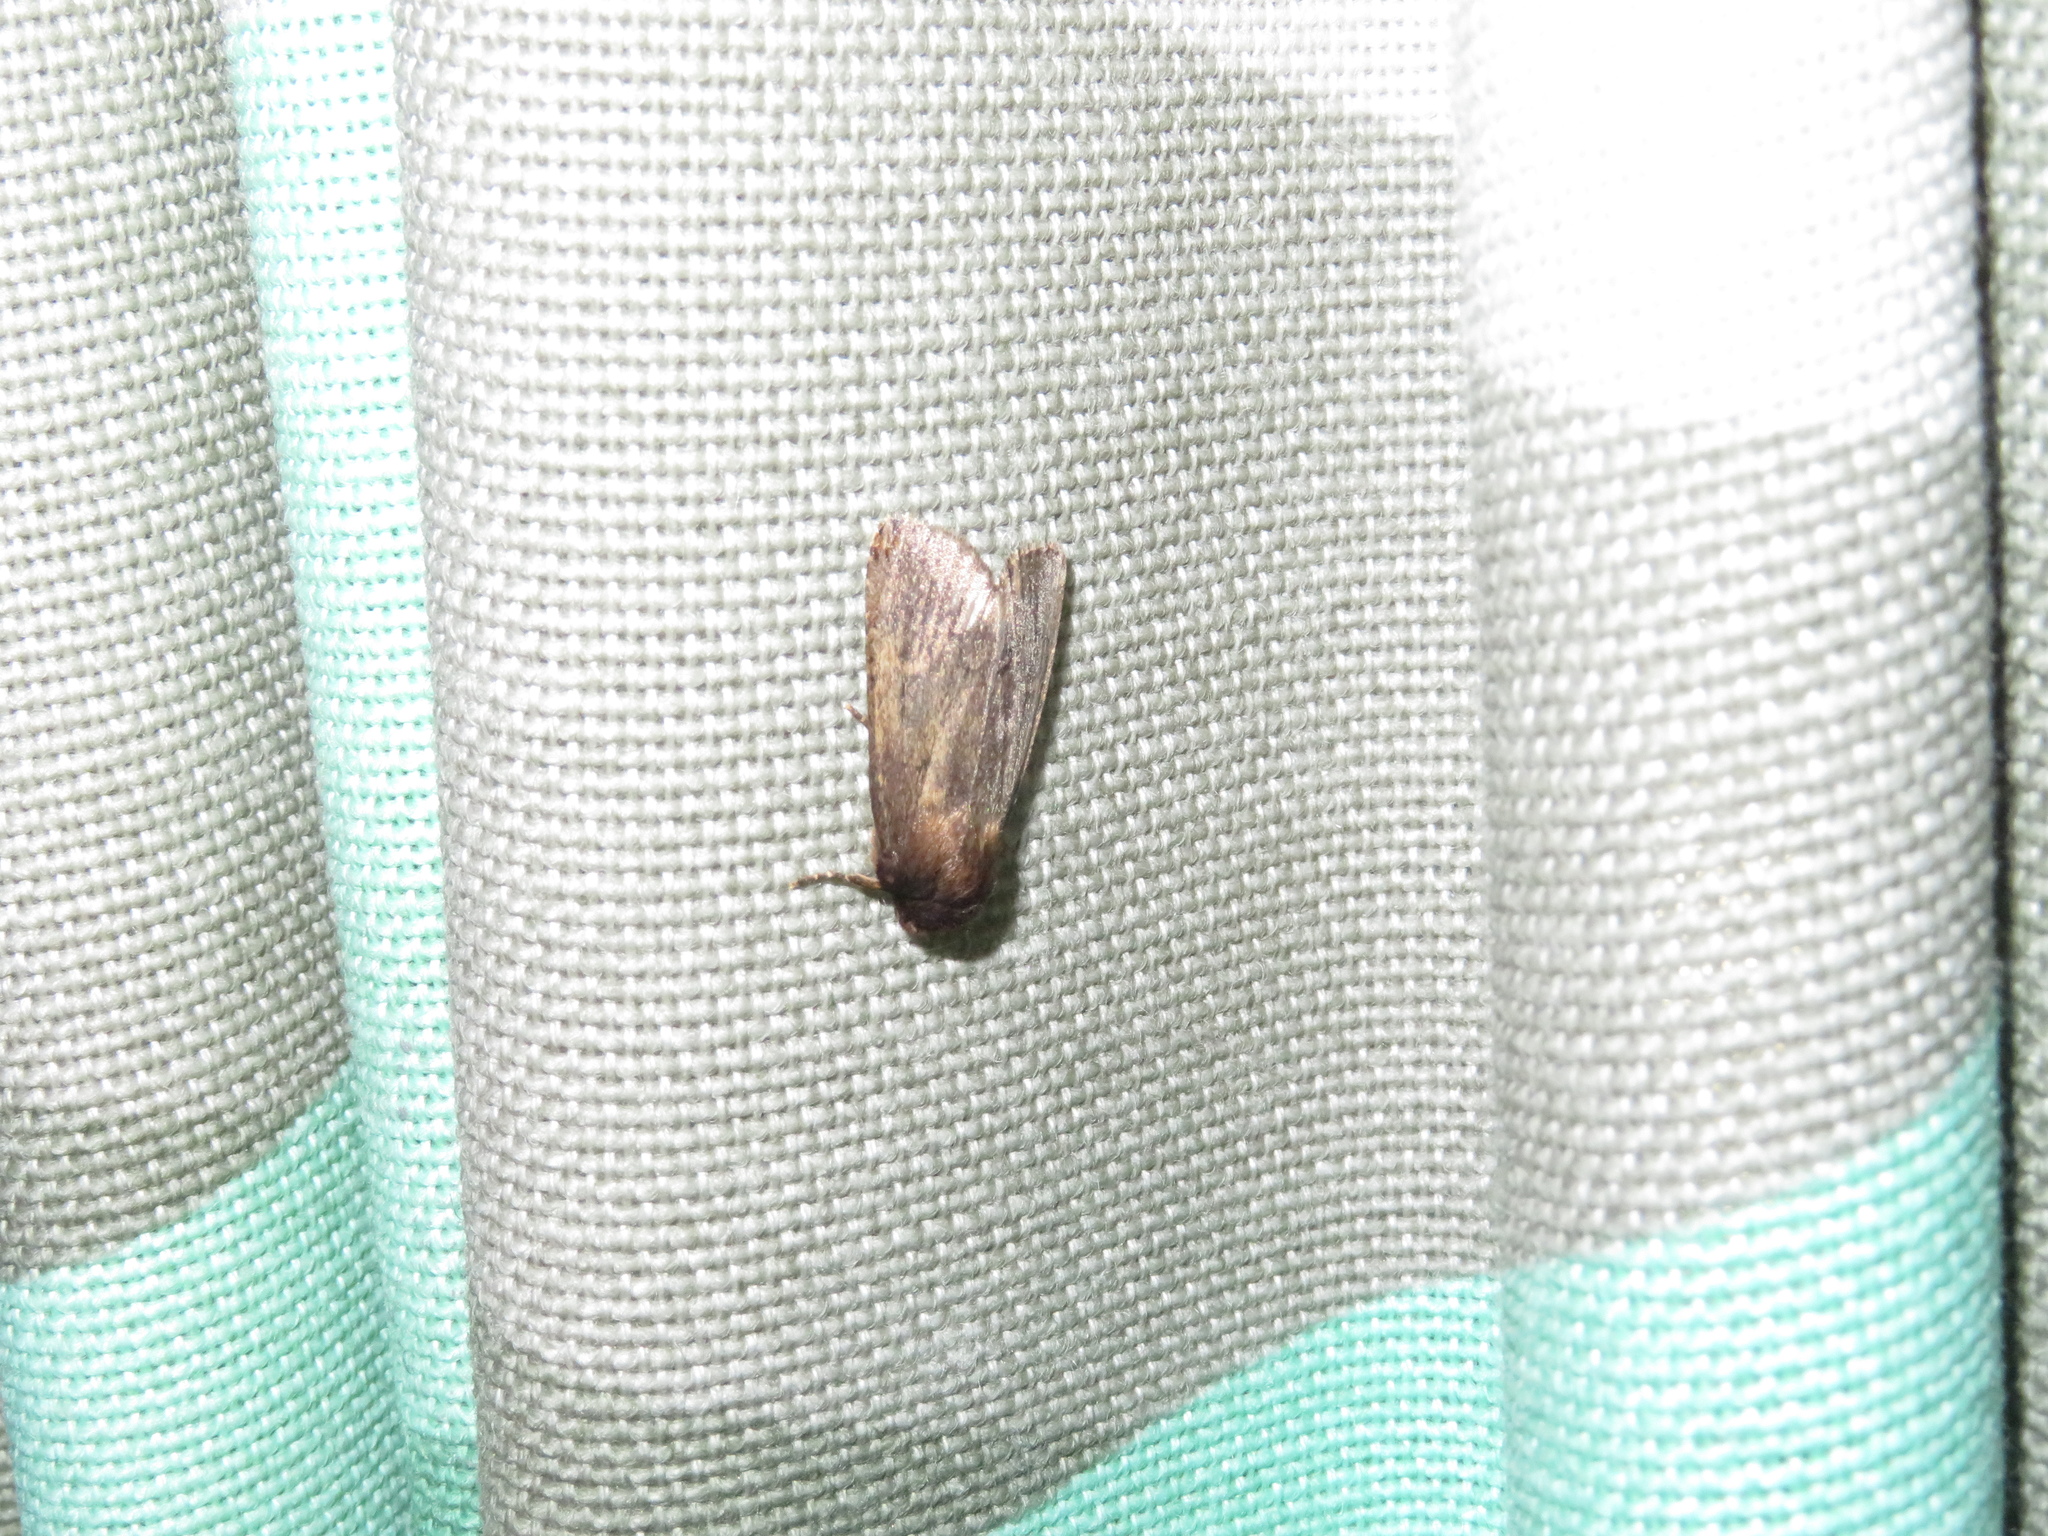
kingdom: Animalia
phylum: Arthropoda
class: Insecta
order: Lepidoptera
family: Noctuidae
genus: Bityla
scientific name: Bityla defigurata
